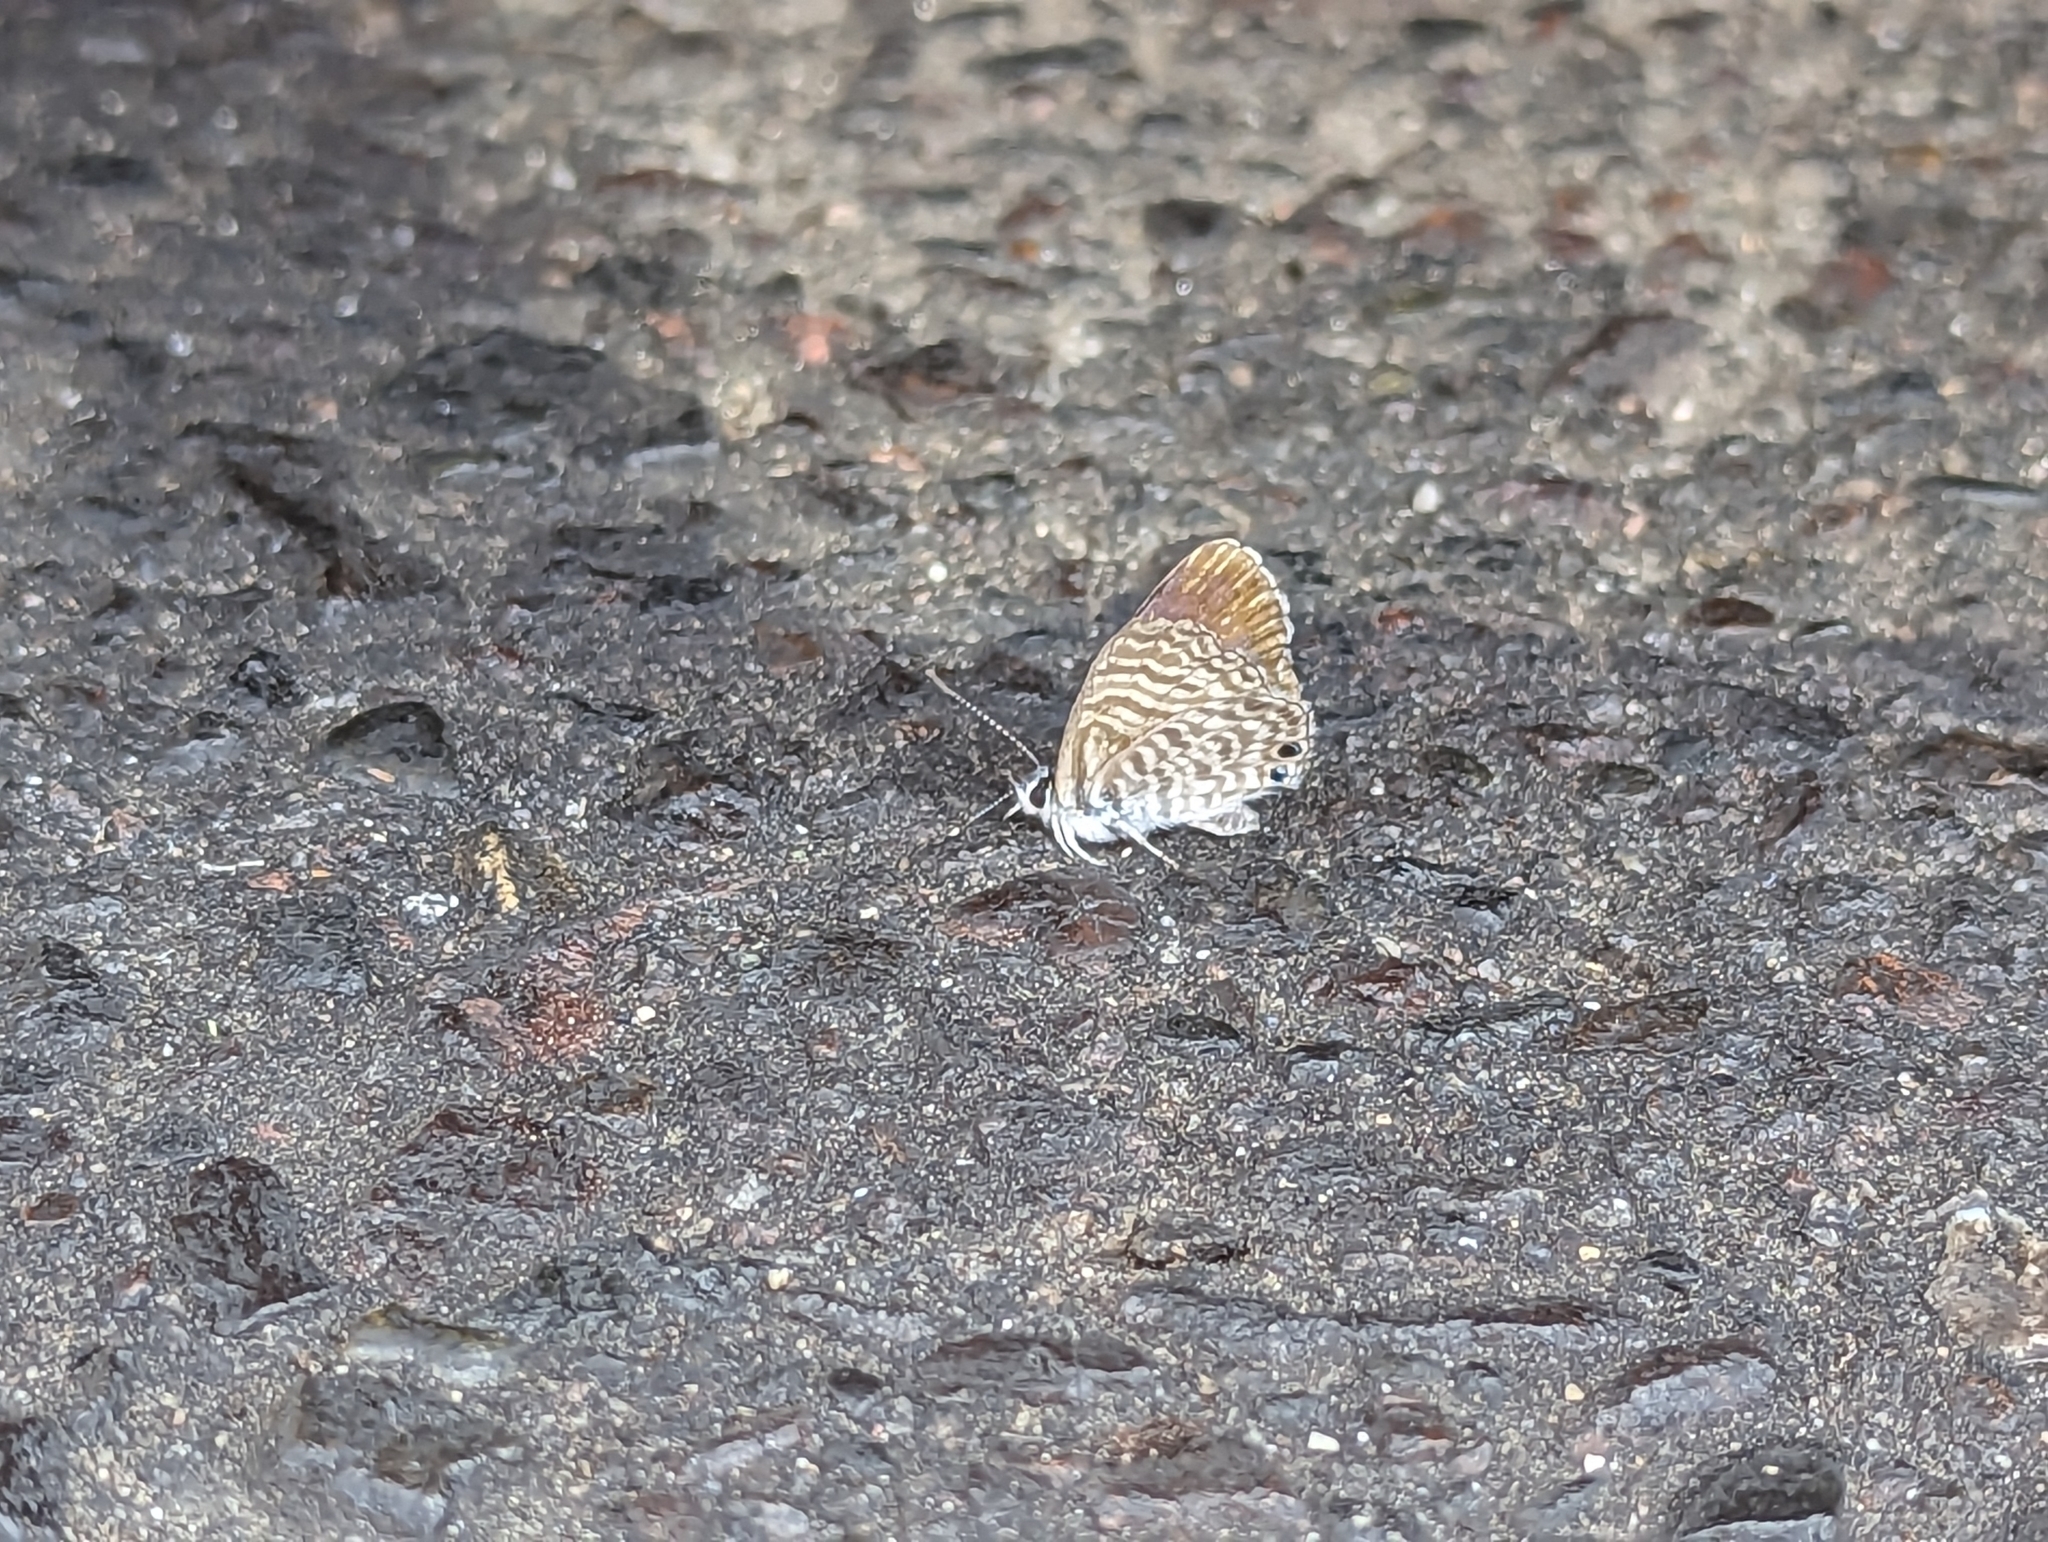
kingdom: Animalia
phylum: Arthropoda
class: Insecta
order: Lepidoptera
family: Lycaenidae
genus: Leptotes
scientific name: Leptotes marina
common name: Marine blue
